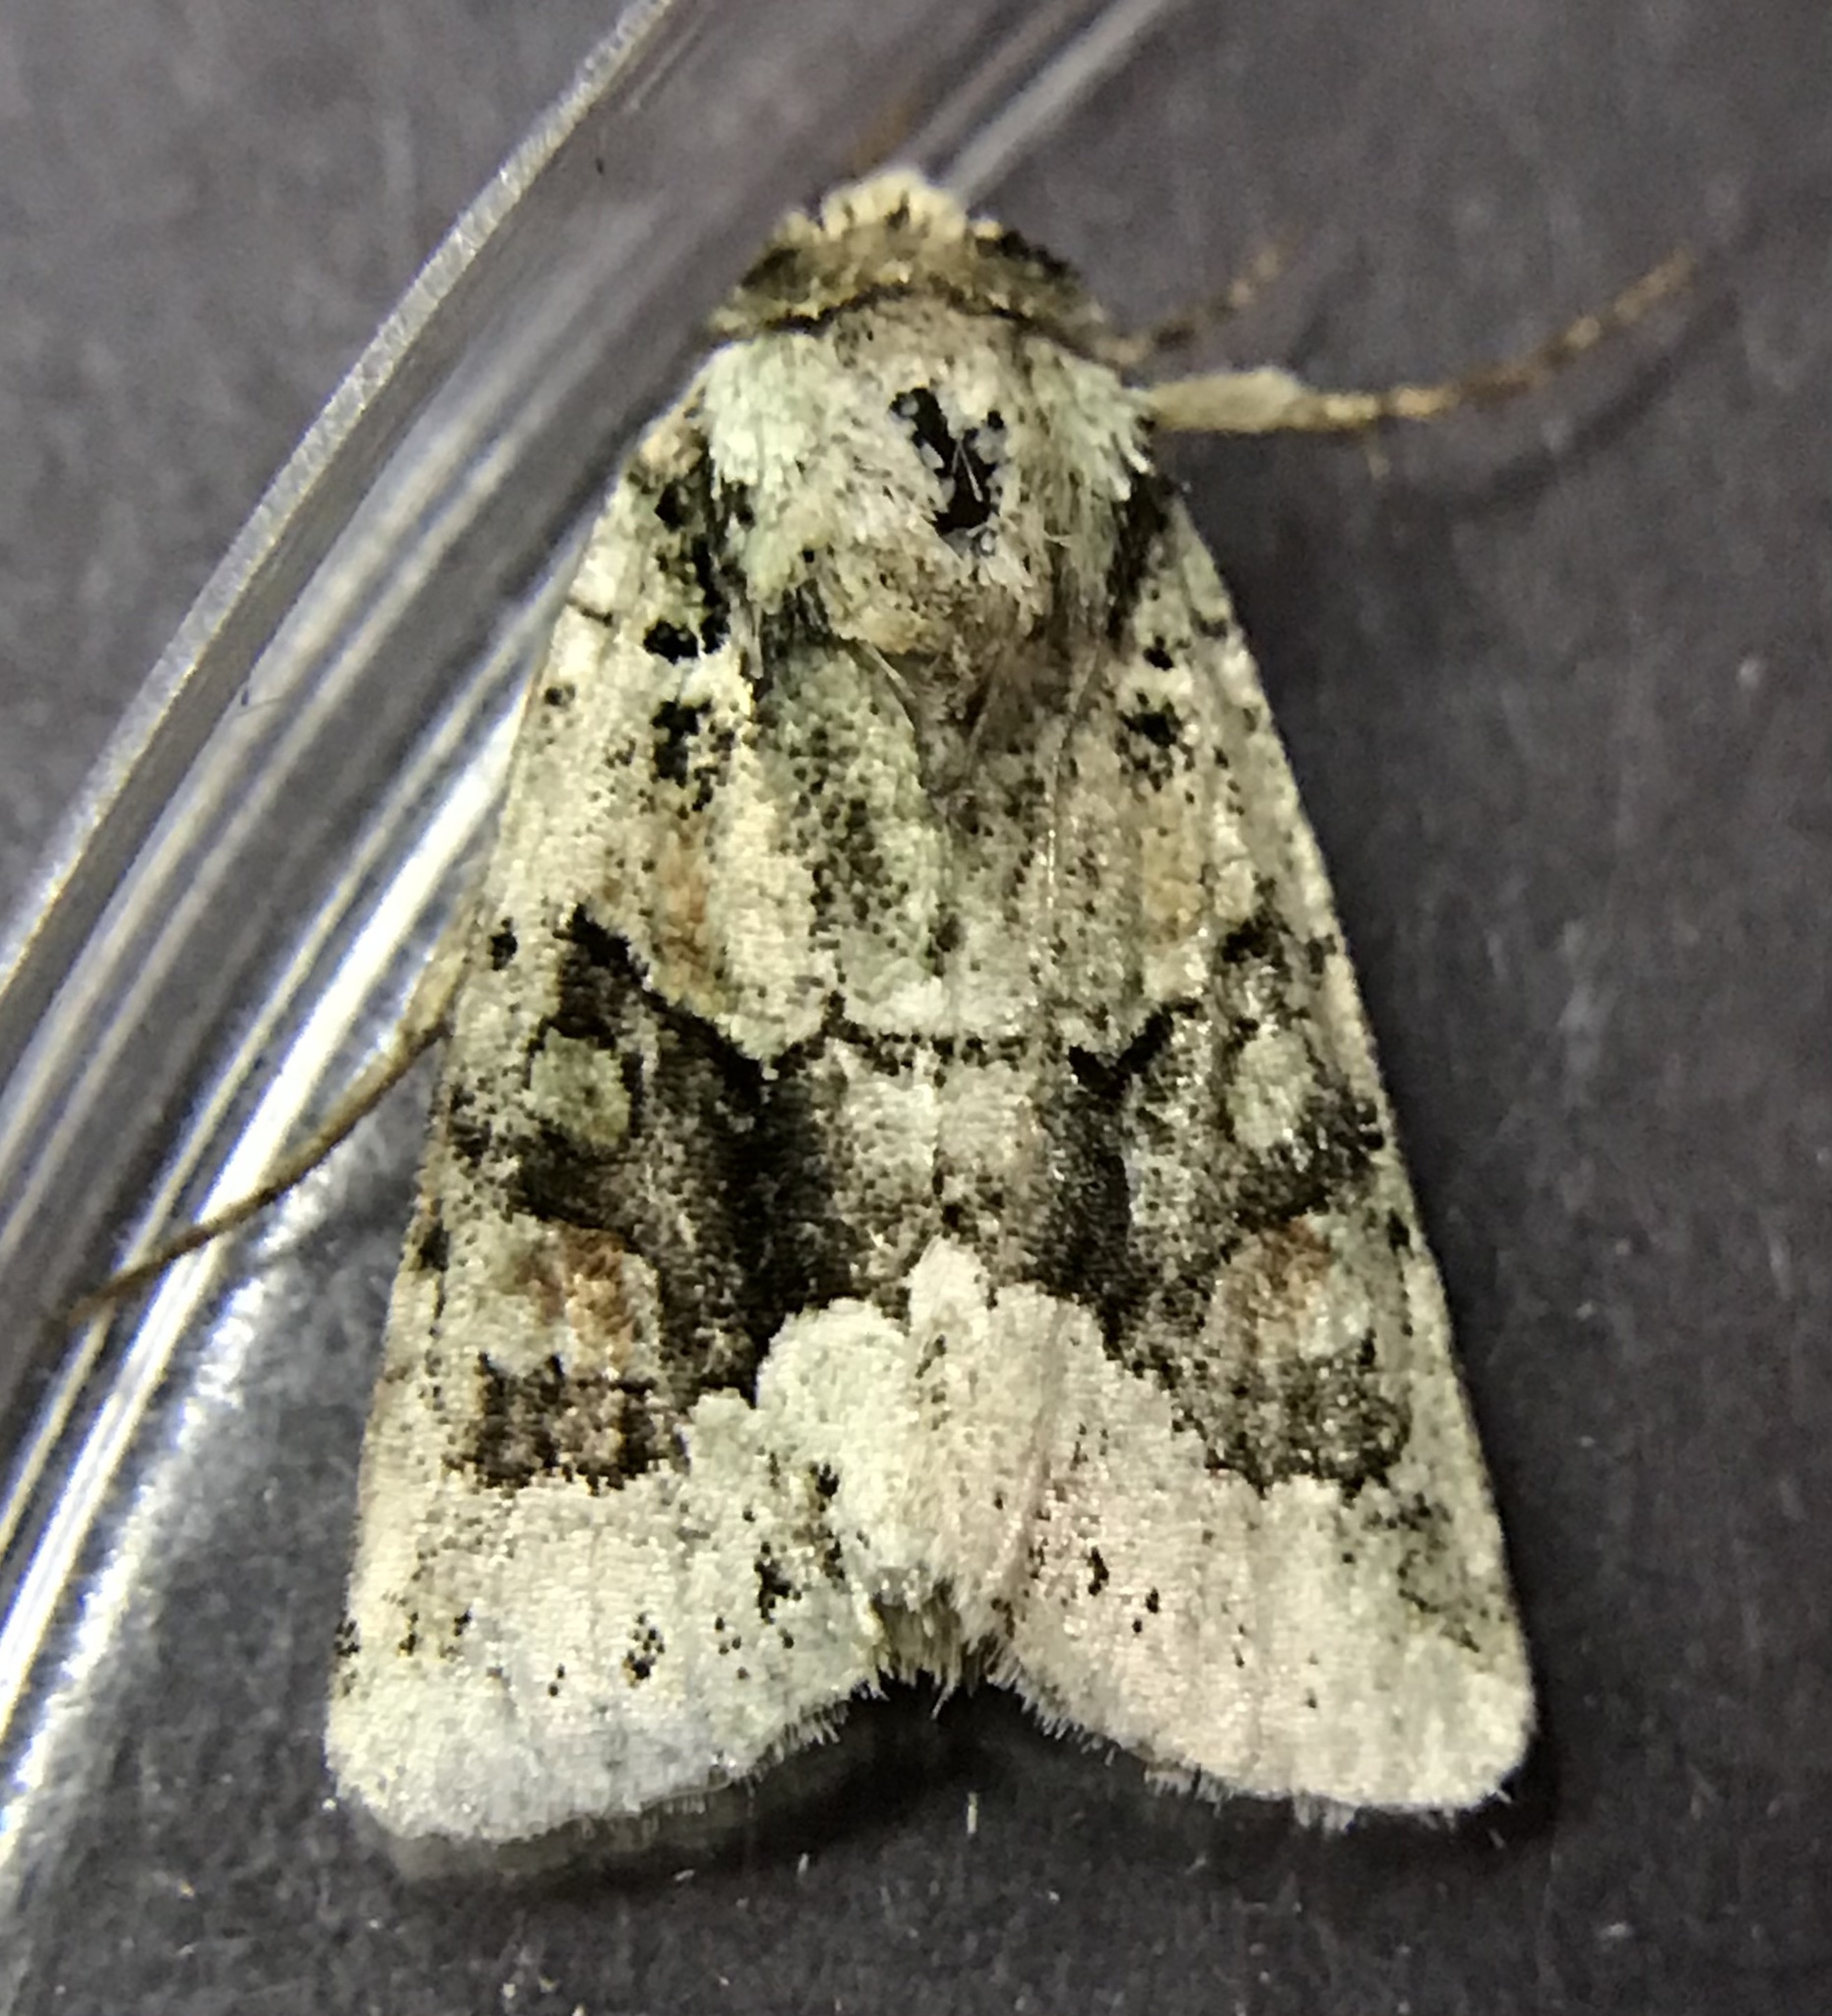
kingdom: Animalia
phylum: Arthropoda
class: Insecta
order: Lepidoptera
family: Noctuidae
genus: Lacinipolia
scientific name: Lacinipolia explicata
